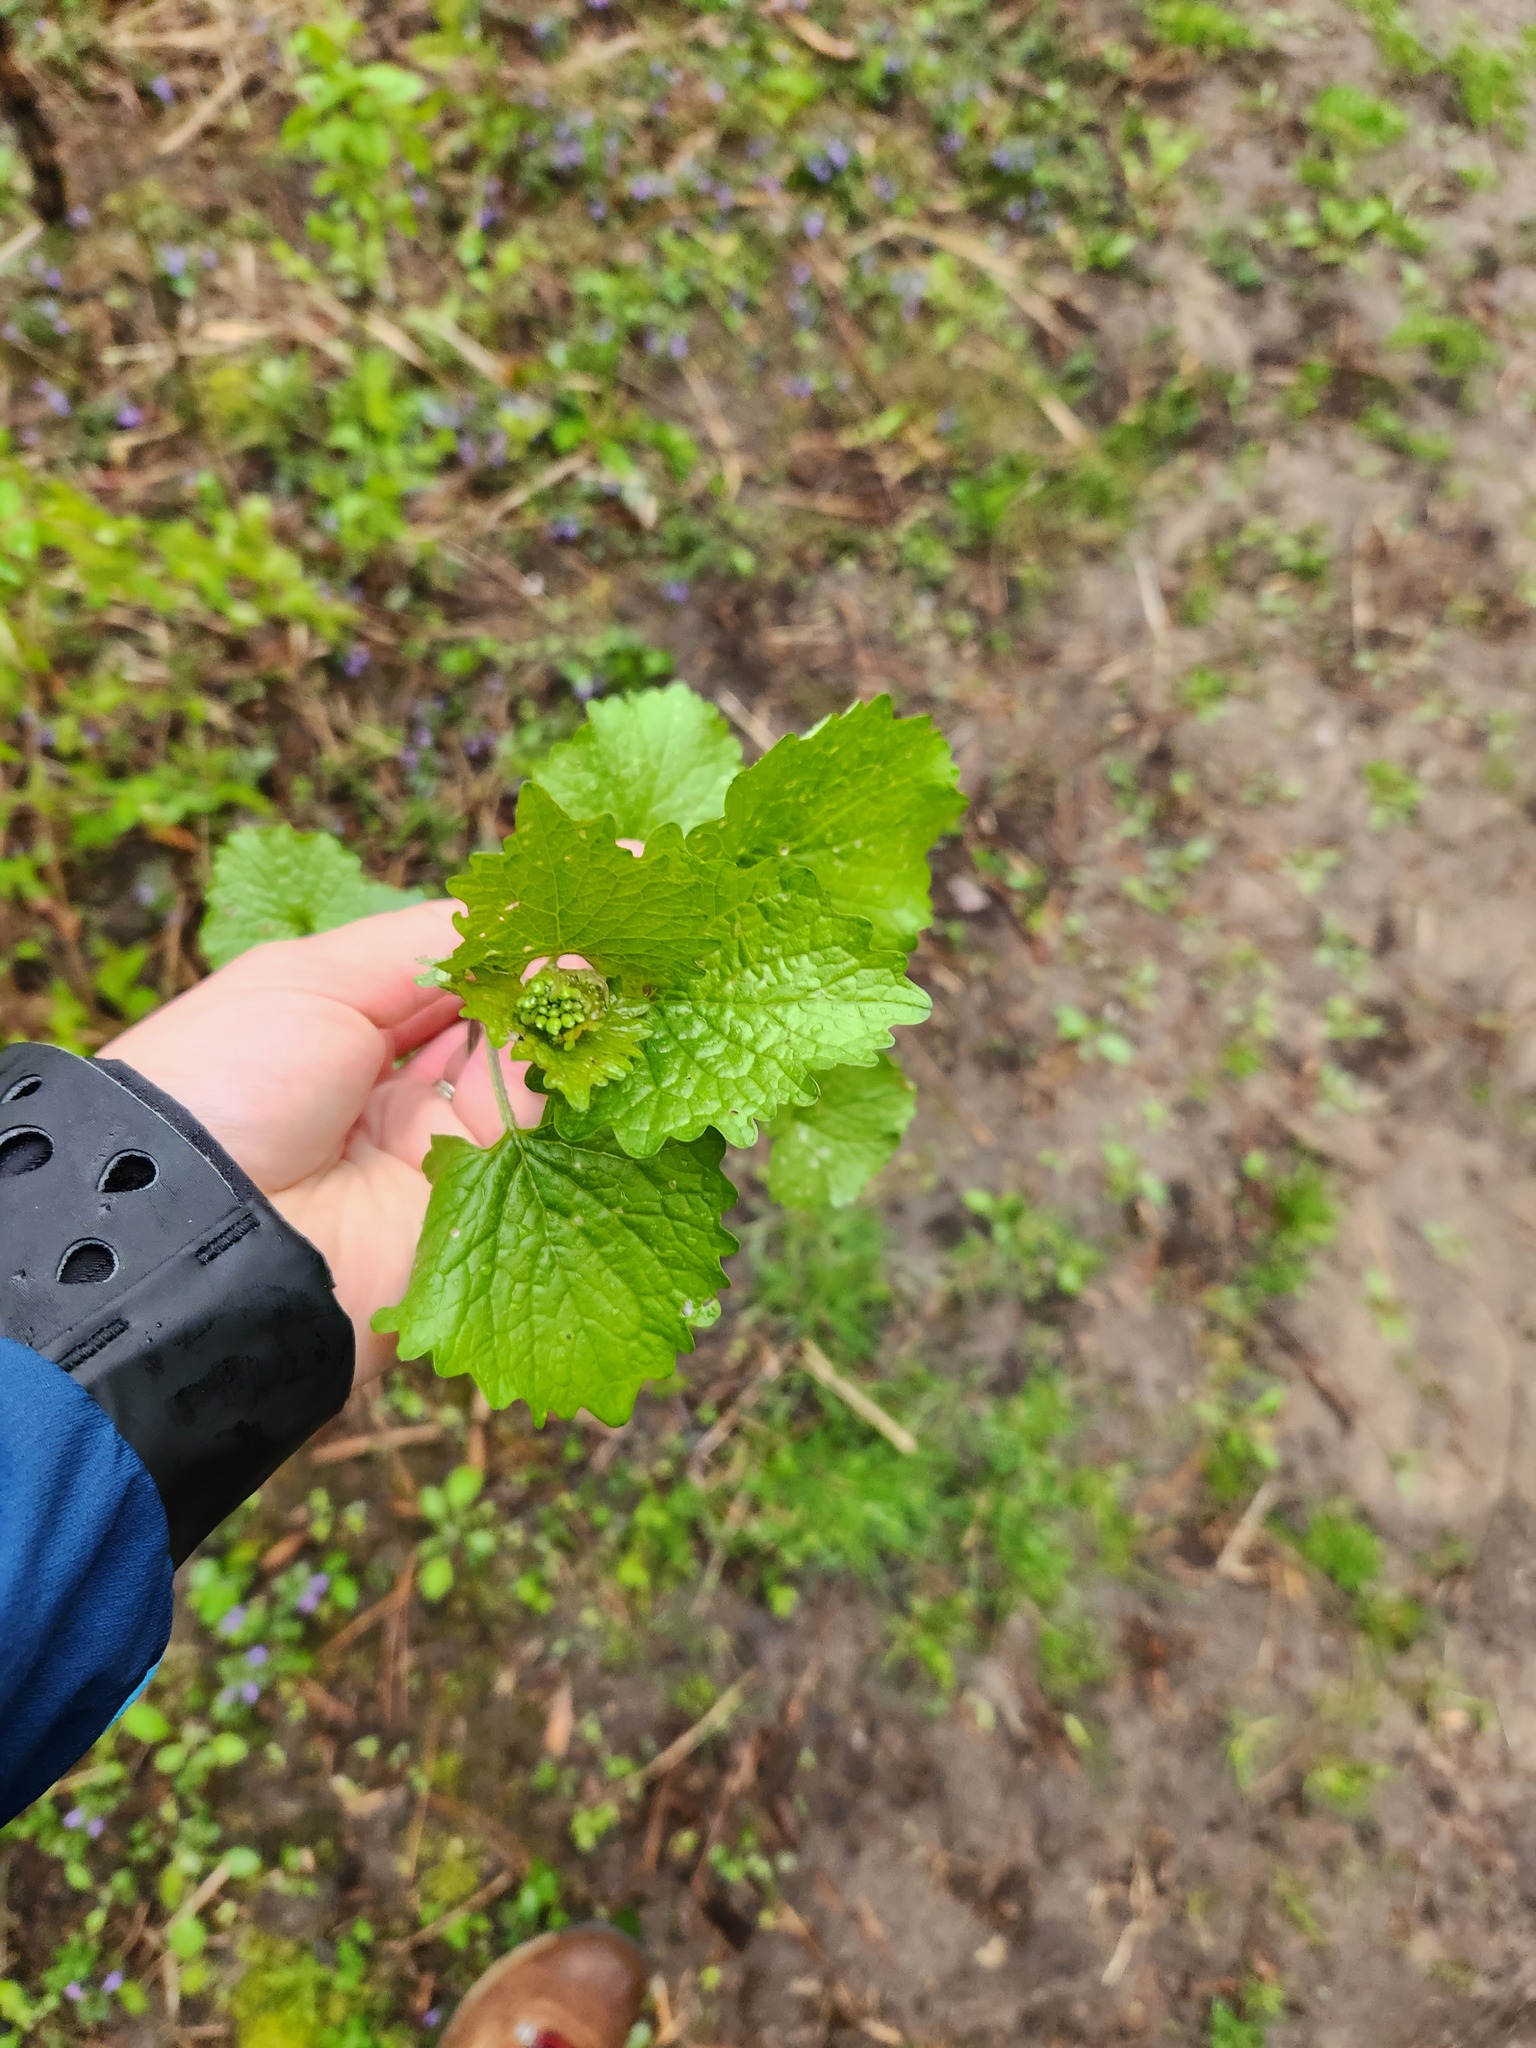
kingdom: Plantae
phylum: Tracheophyta
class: Magnoliopsida
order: Brassicales
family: Brassicaceae
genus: Alliaria
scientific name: Alliaria petiolata
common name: Garlic mustard
